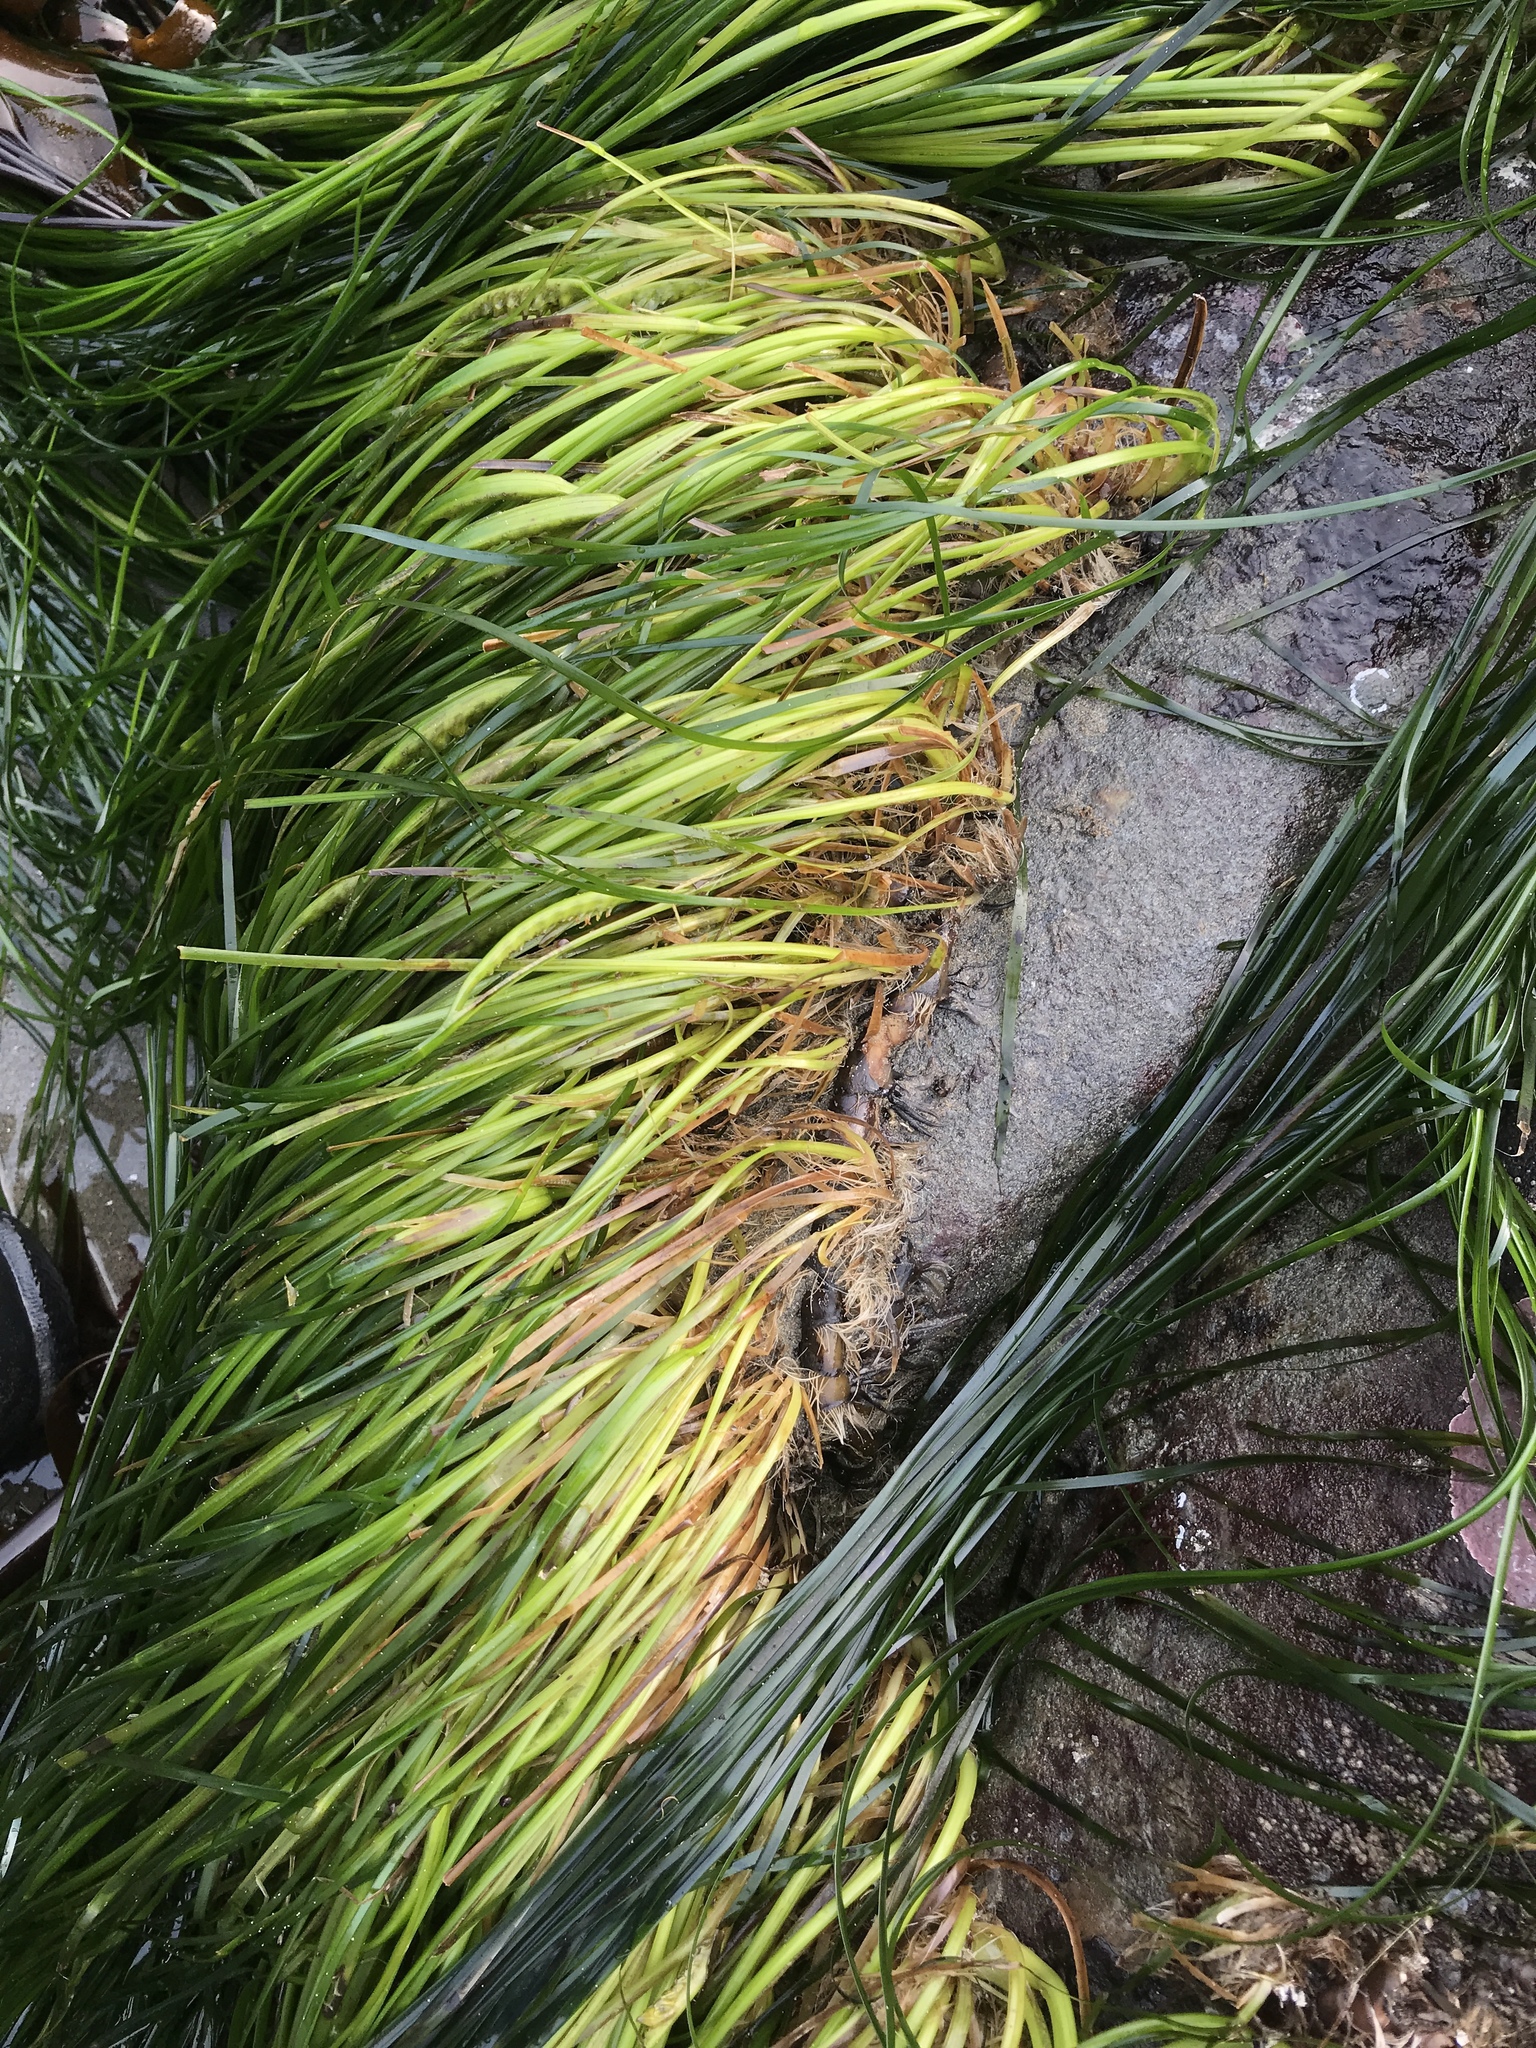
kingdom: Plantae
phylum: Tracheophyta
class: Liliopsida
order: Alismatales
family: Zosteraceae
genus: Phyllospadix
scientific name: Phyllospadix scouleri
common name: Species code: ps
